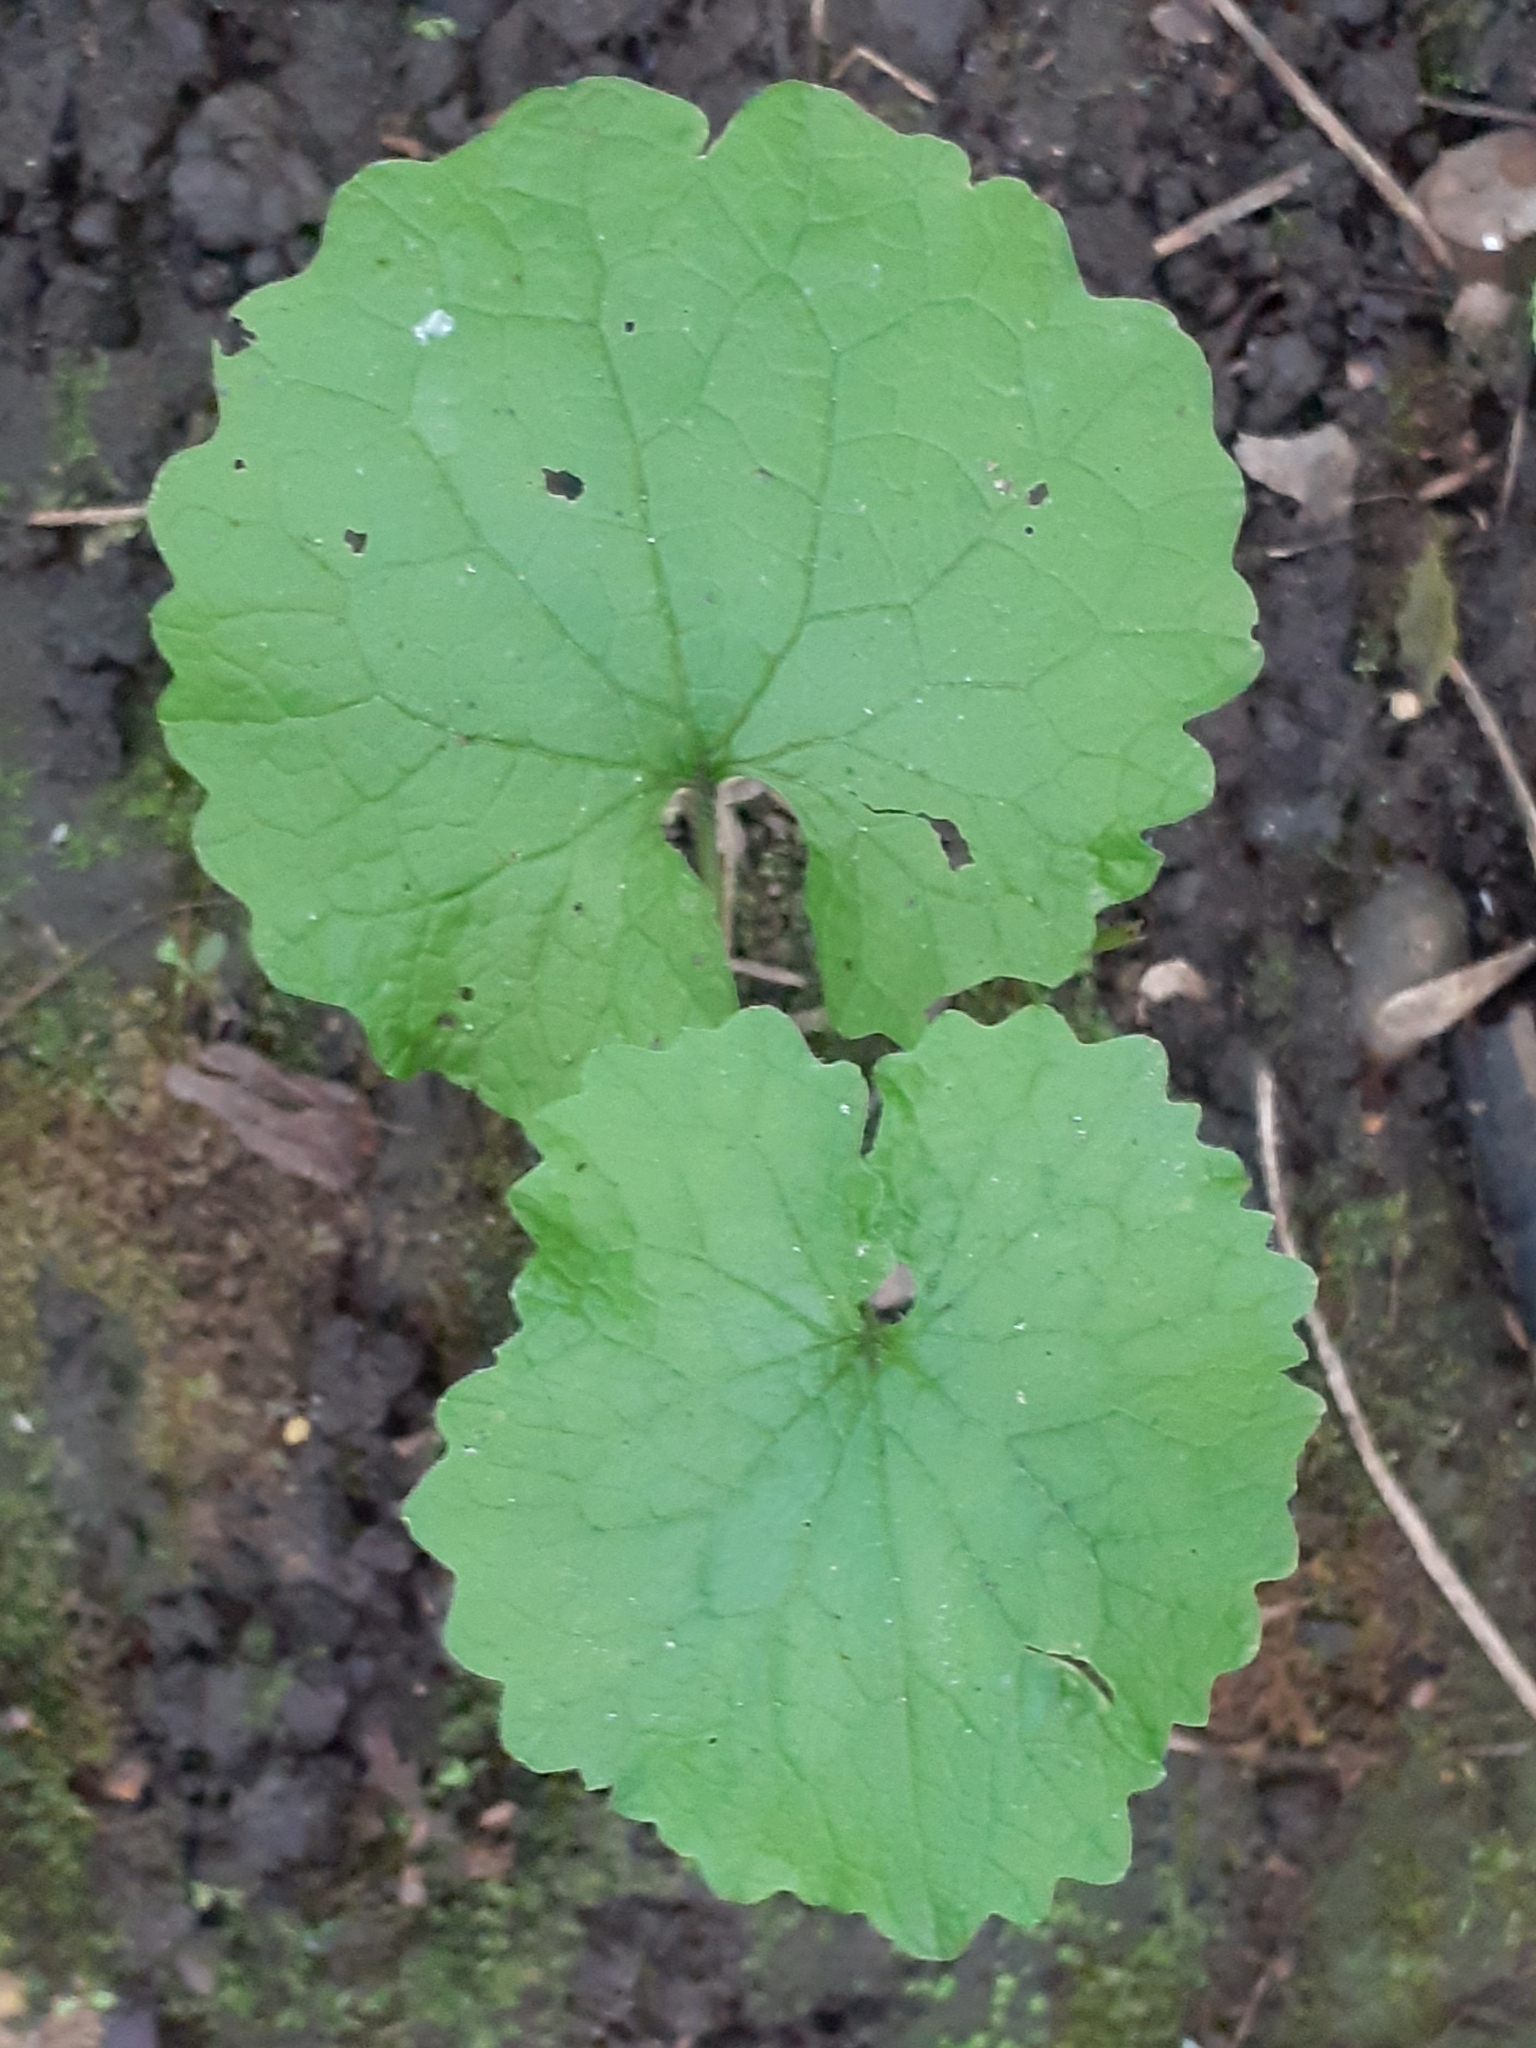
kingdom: Plantae
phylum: Tracheophyta
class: Magnoliopsida
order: Brassicales
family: Brassicaceae
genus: Alliaria
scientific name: Alliaria petiolata
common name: Garlic mustard
